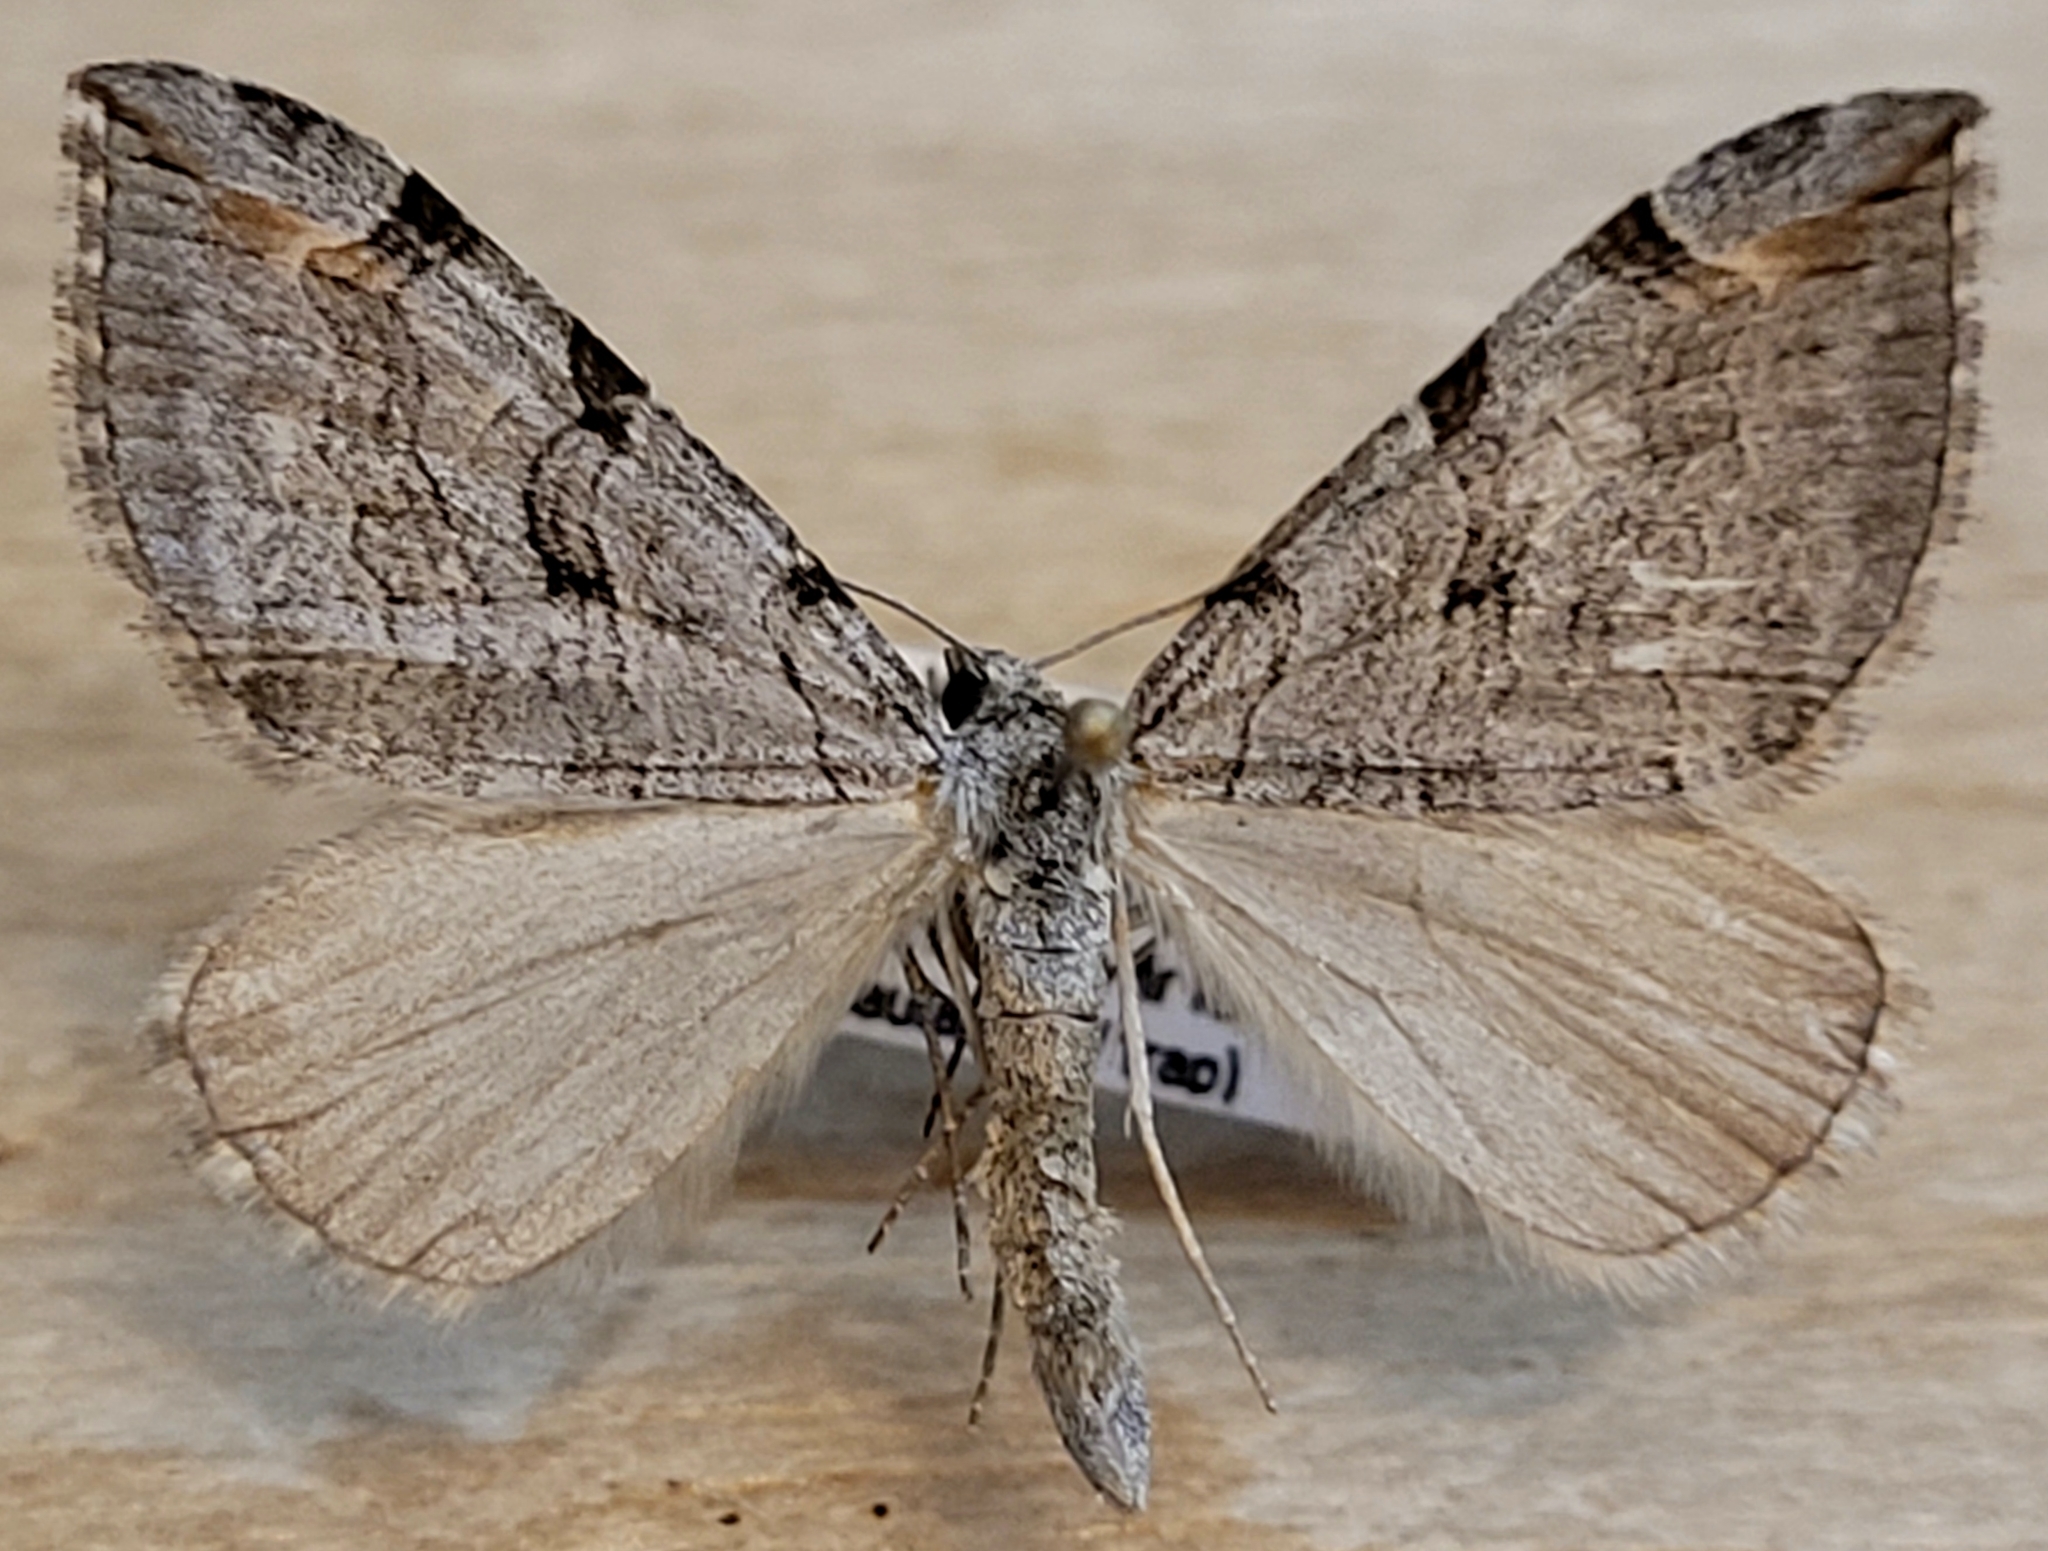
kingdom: Animalia
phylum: Arthropoda
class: Insecta
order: Lepidoptera
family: Geometridae
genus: Aplocera
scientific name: Aplocera plagiata
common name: Treble-bar
